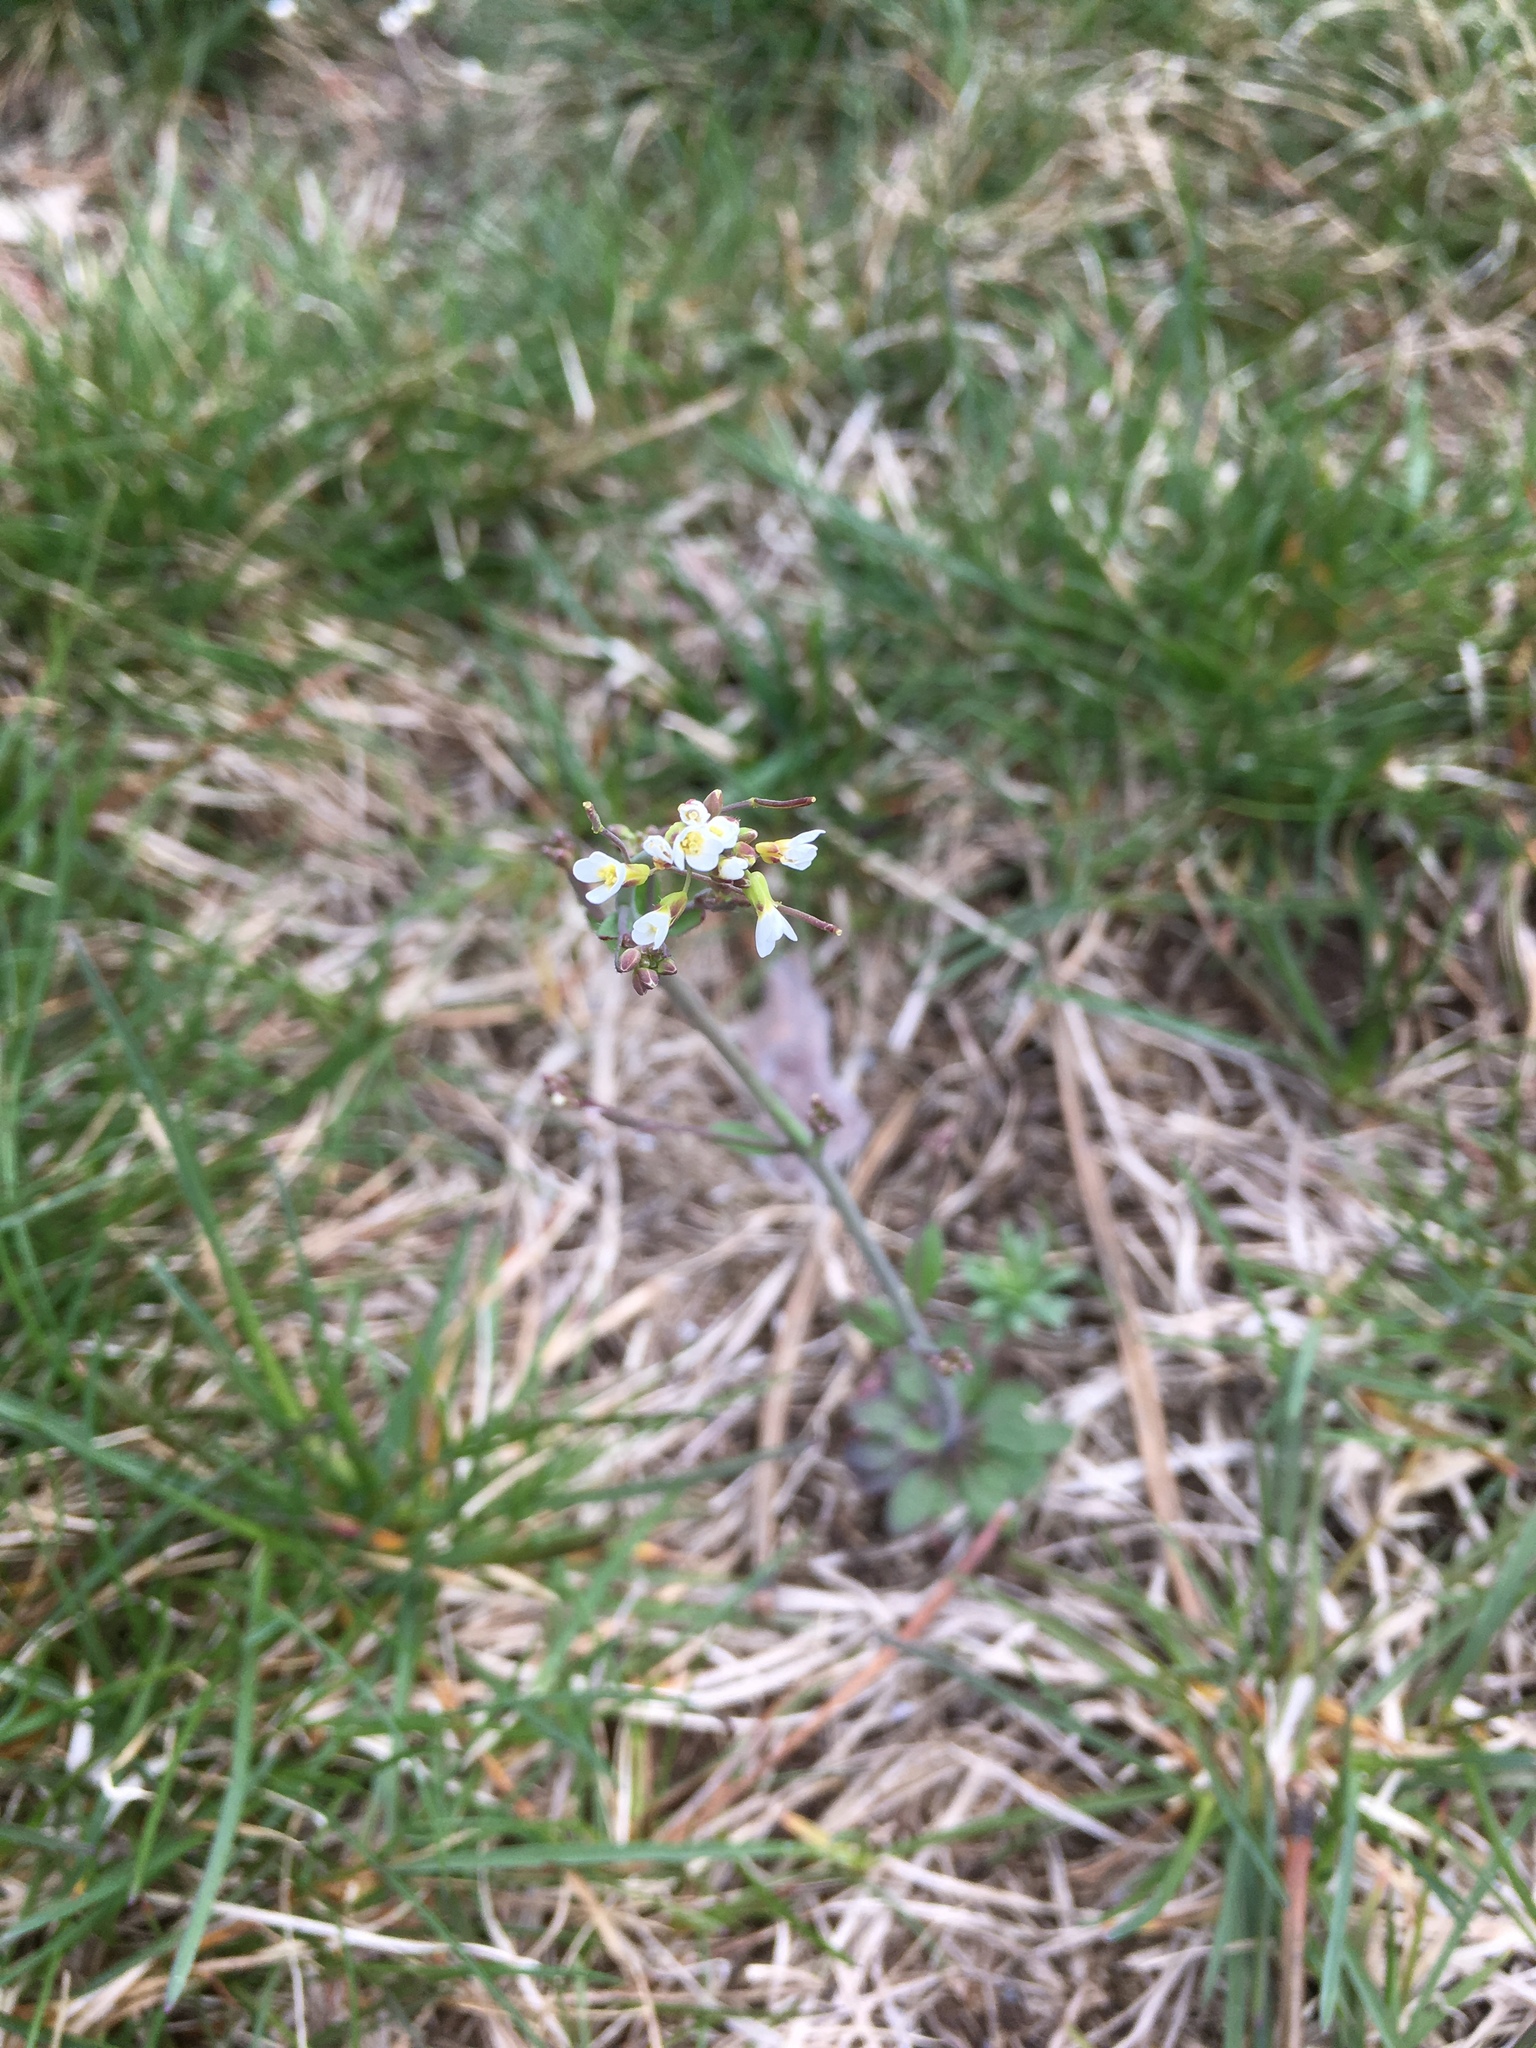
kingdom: Plantae
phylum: Tracheophyta
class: Magnoliopsida
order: Brassicales
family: Brassicaceae
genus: Arabidopsis
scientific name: Arabidopsis thaliana
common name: Thale cress
